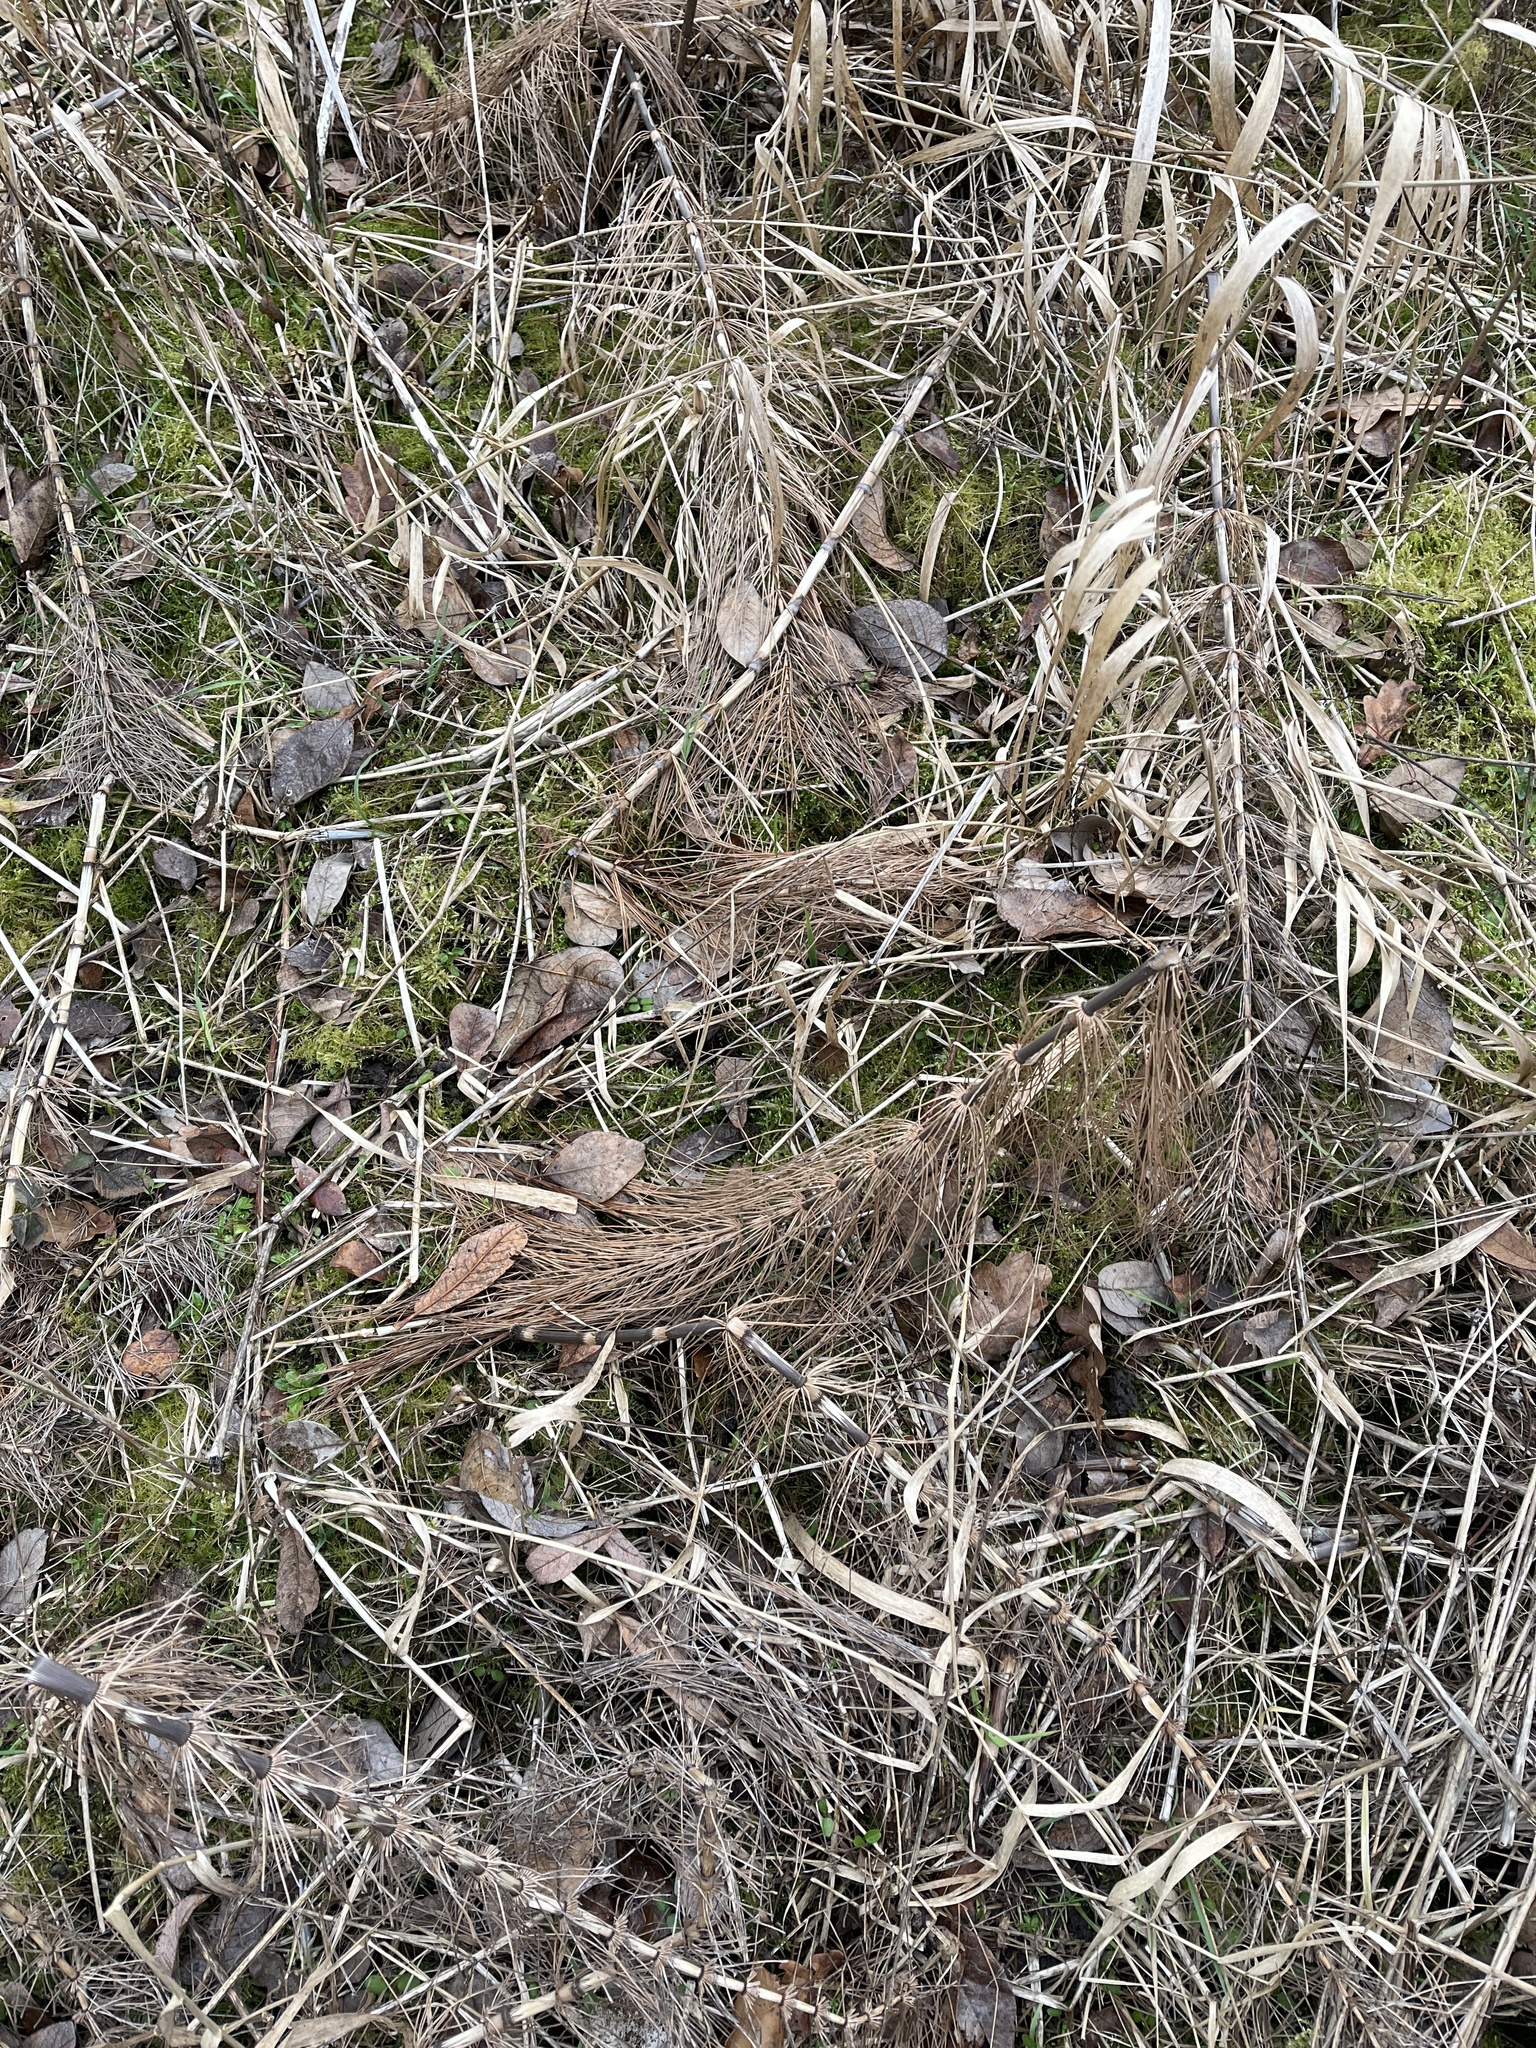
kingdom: Plantae
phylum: Tracheophyta
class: Polypodiopsida
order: Equisetales
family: Equisetaceae
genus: Equisetum
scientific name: Equisetum telmateia
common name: Great horsetail
